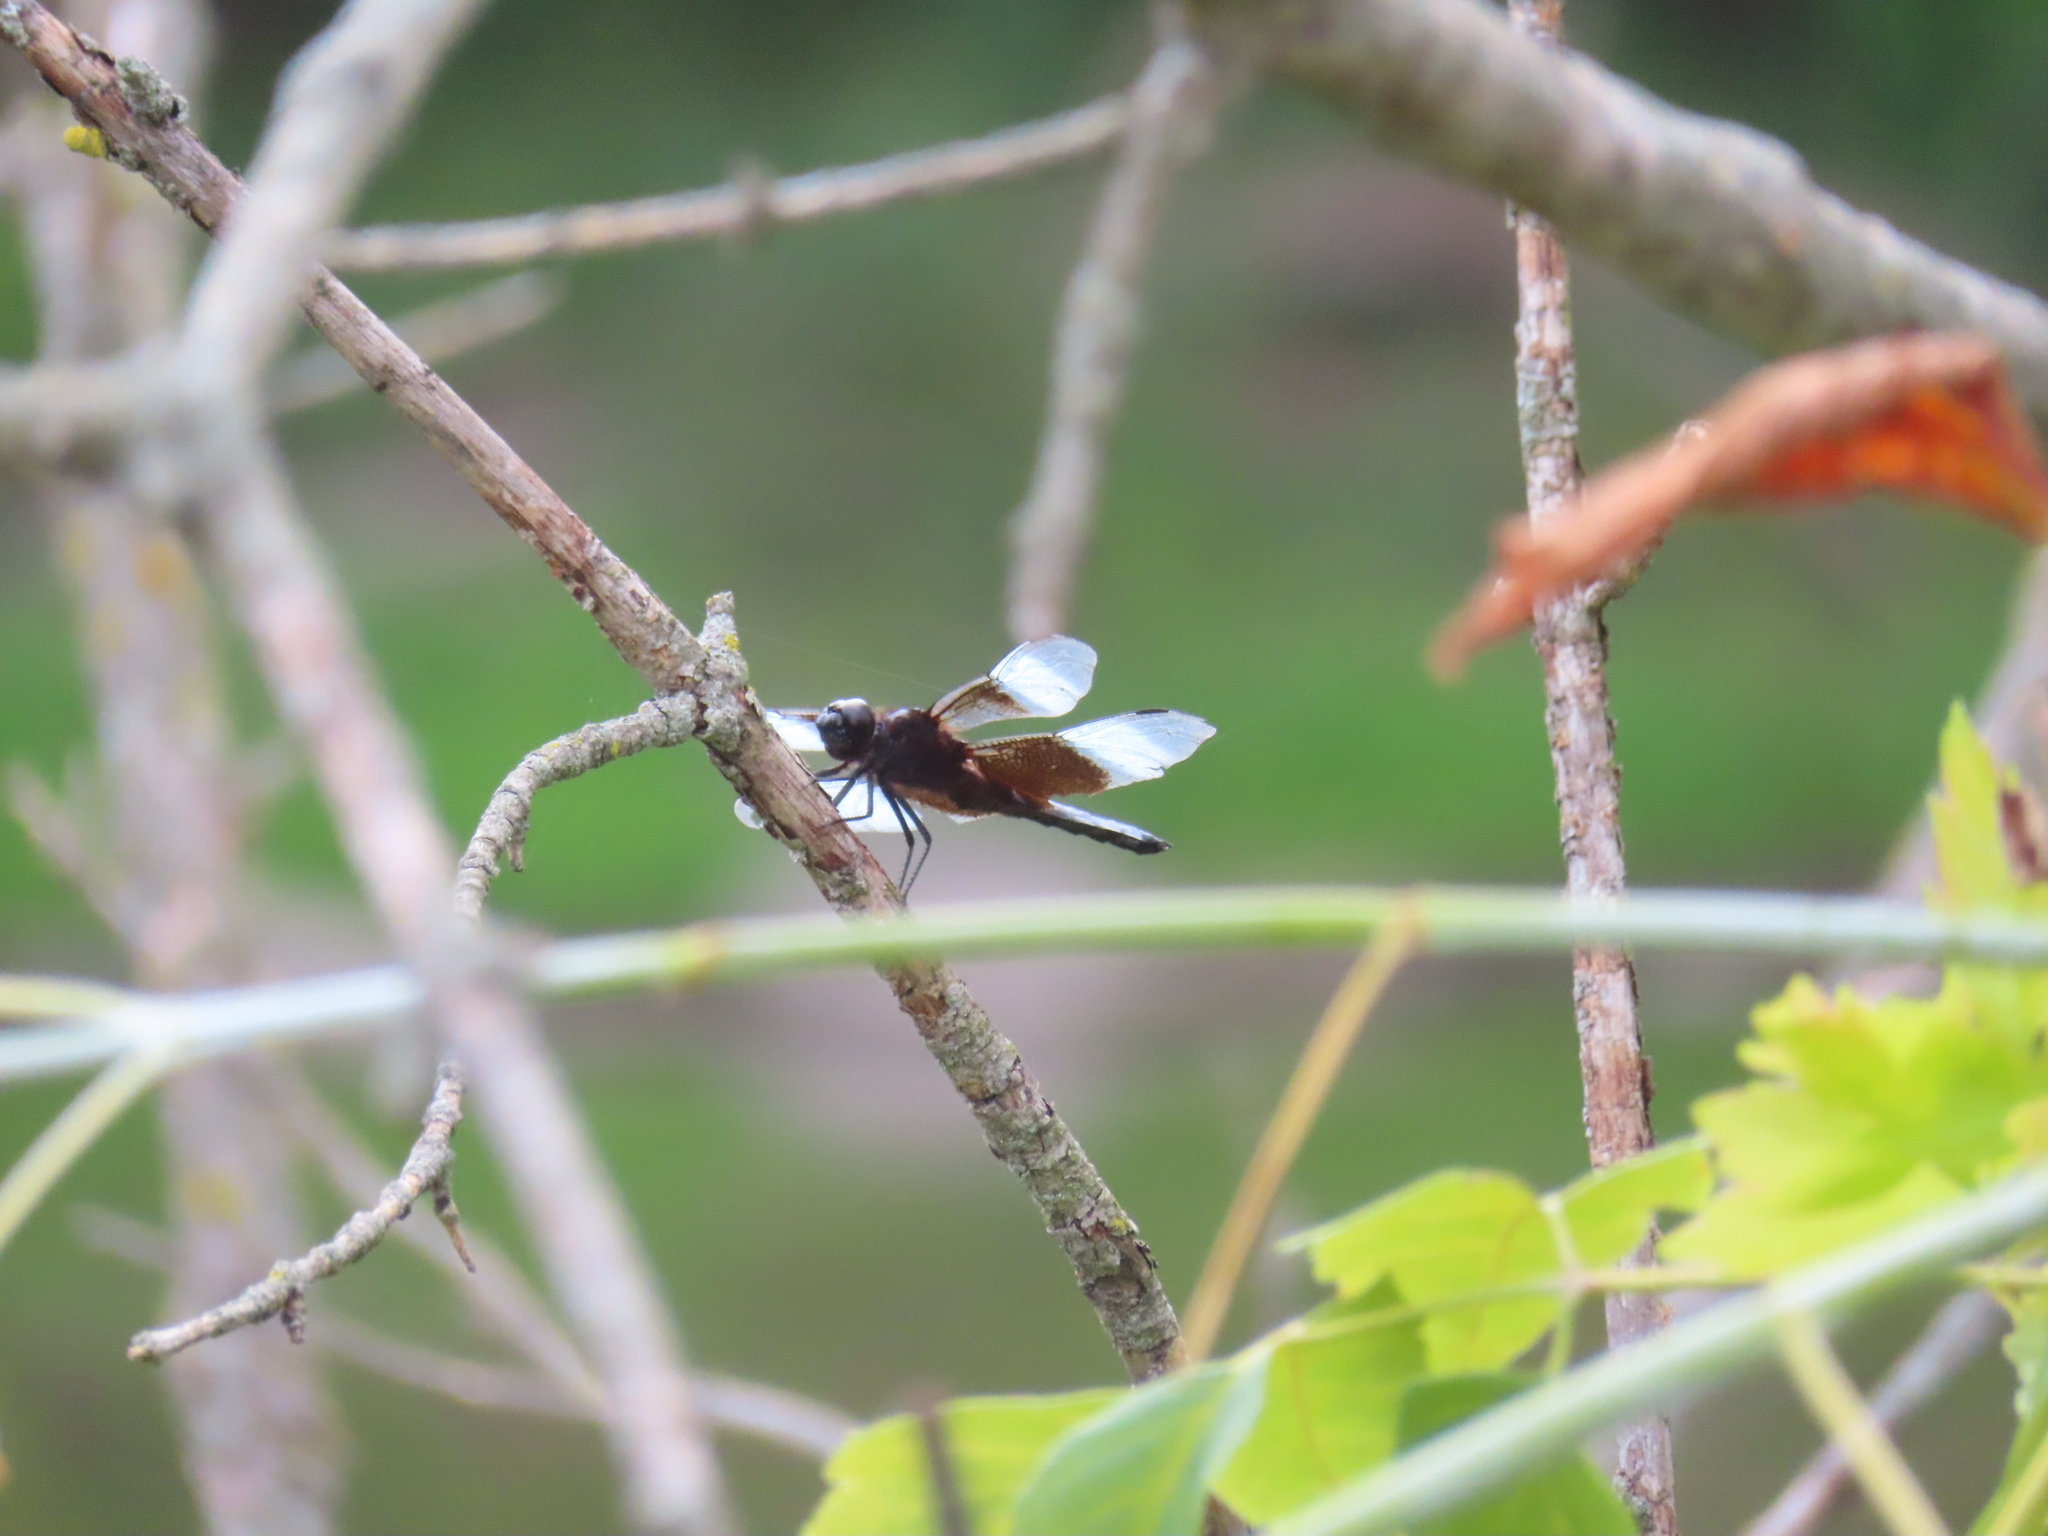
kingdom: Animalia
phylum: Arthropoda
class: Insecta
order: Odonata
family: Libellulidae
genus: Libellula
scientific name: Libellula luctuosa
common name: Widow skimmer
